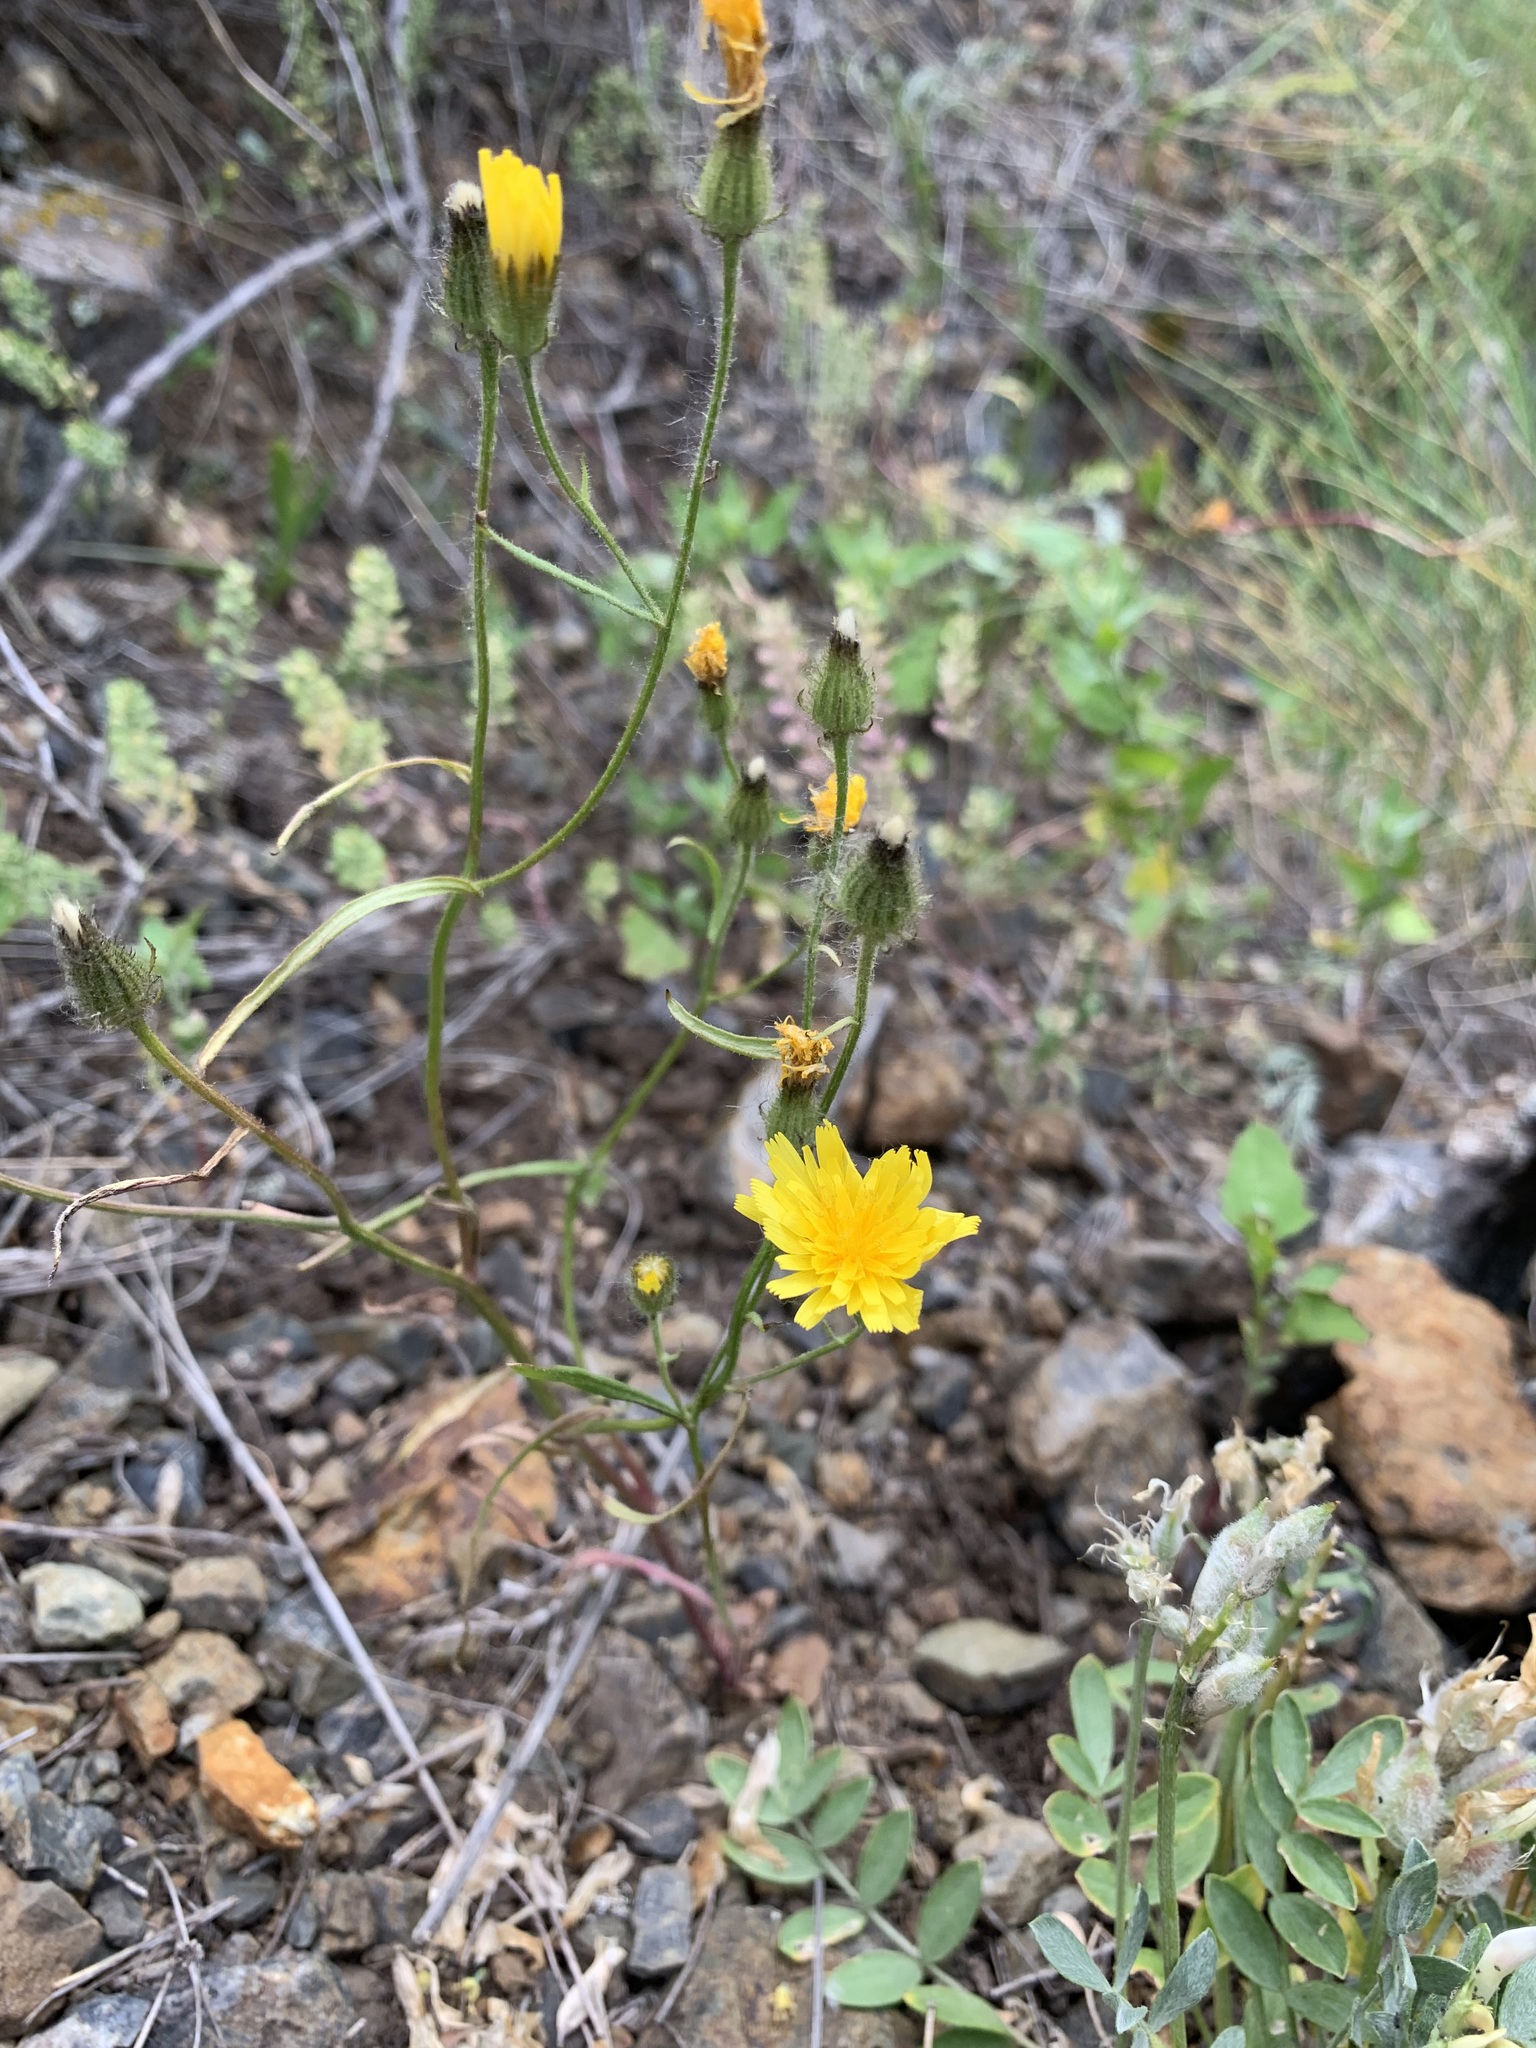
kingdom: Plantae
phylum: Tracheophyta
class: Magnoliopsida
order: Asterales
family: Asteraceae
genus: Crepis
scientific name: Crepis tectorum
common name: Narrow-leaved hawk's-beard
